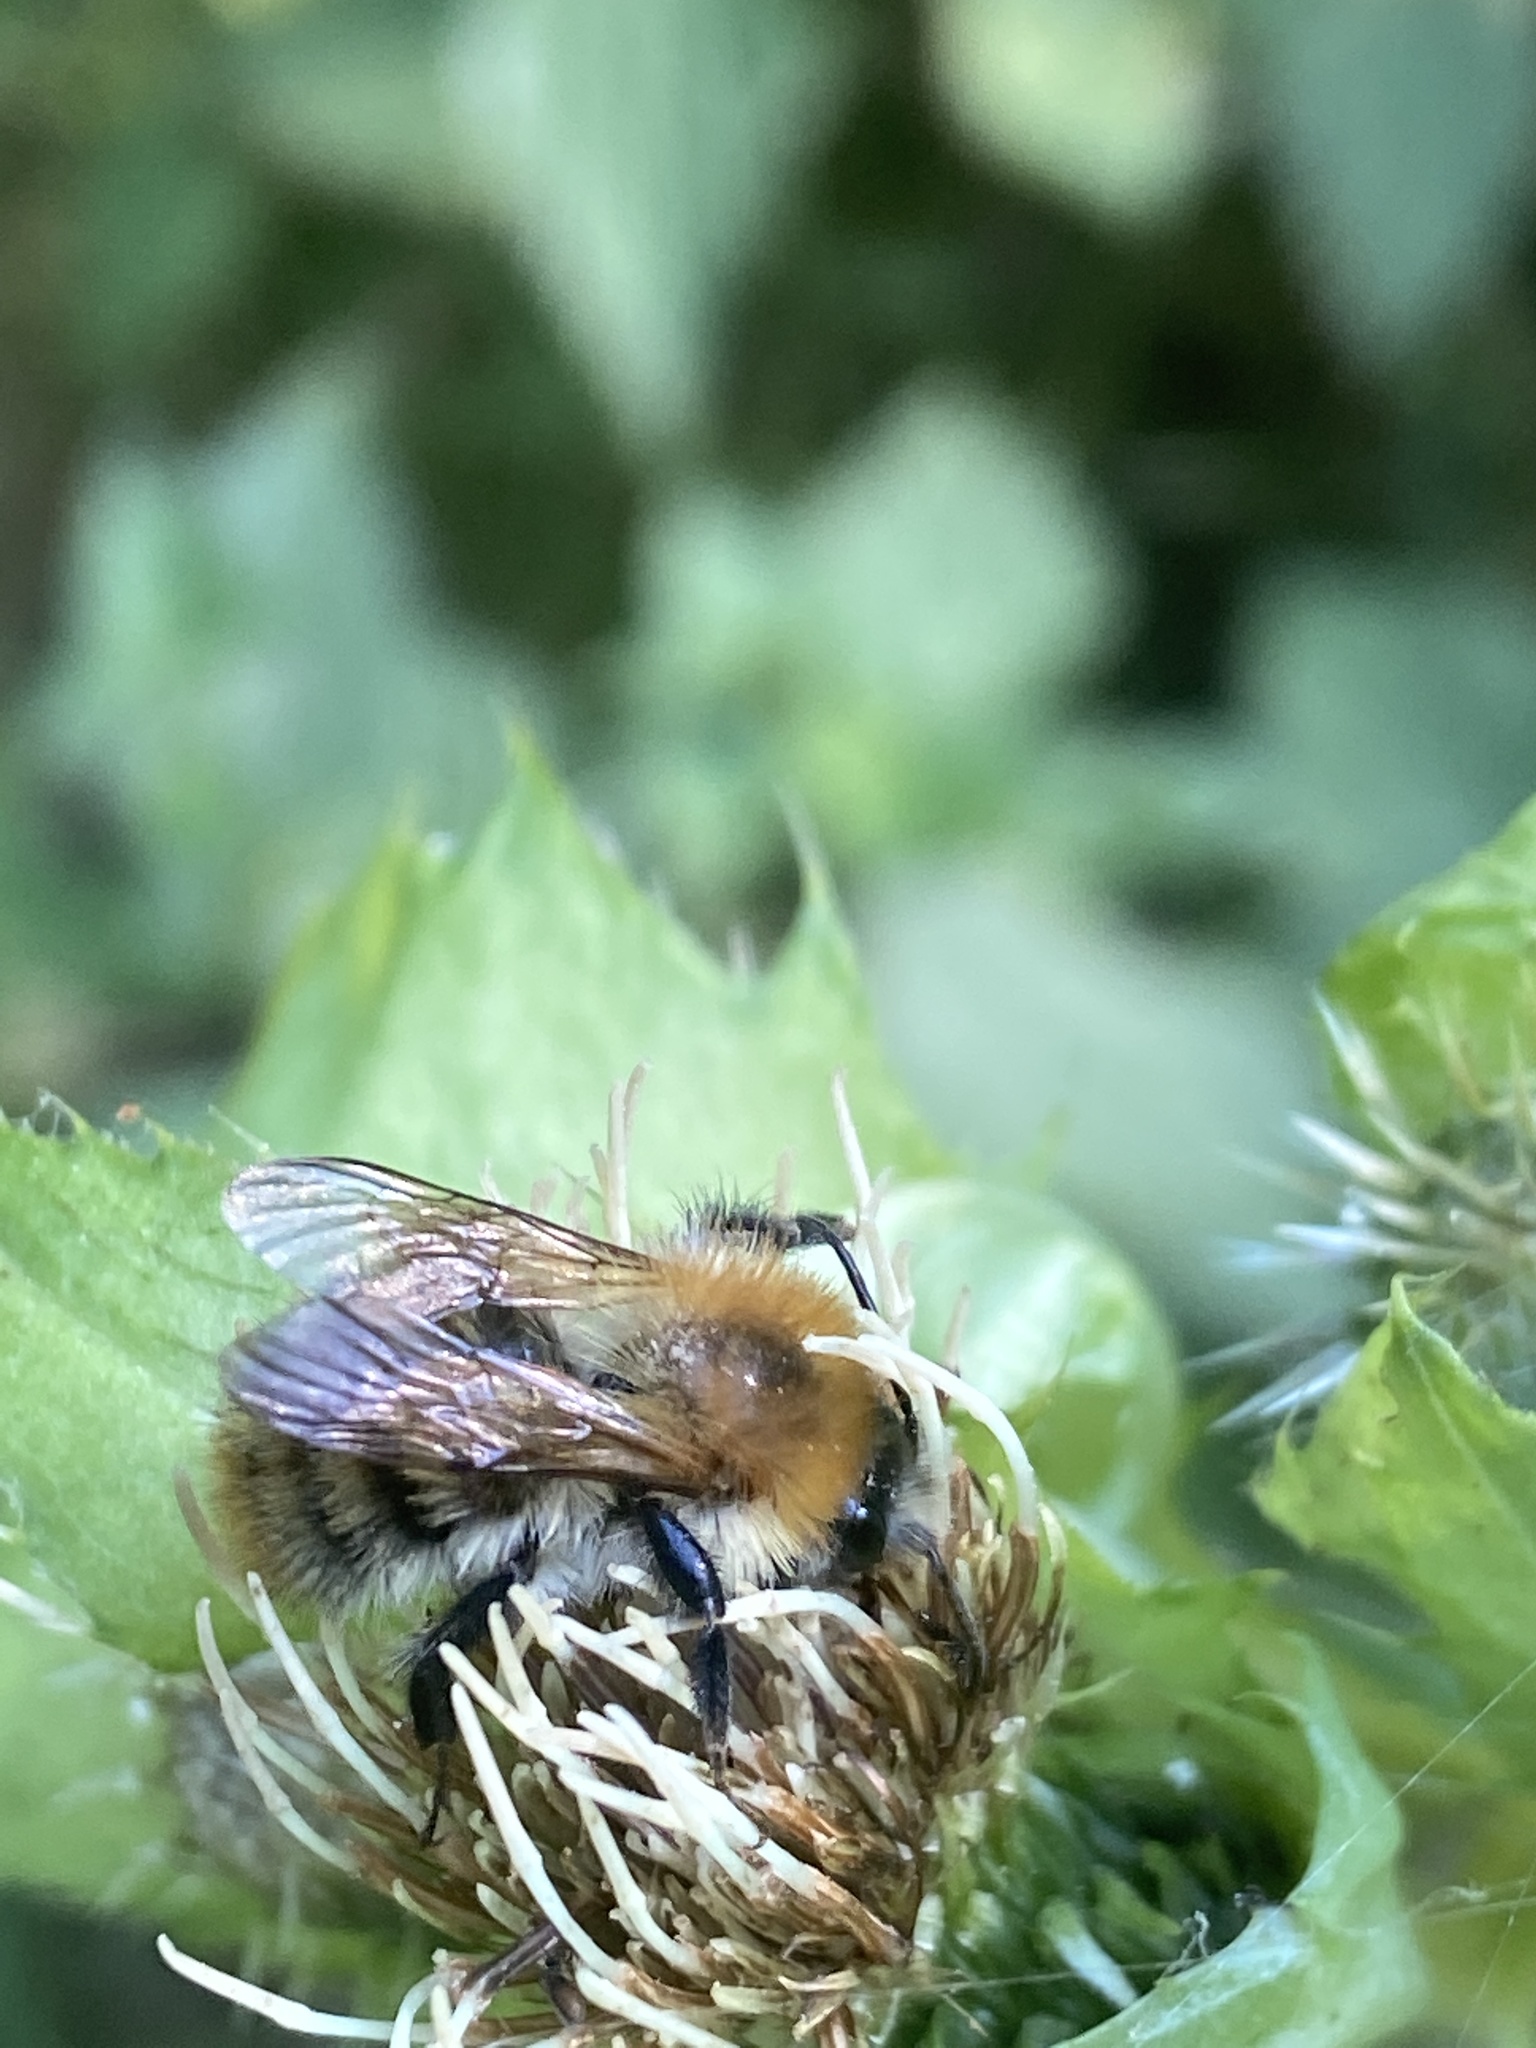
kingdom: Animalia
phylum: Arthropoda
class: Insecta
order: Hymenoptera
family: Apidae
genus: Bombus
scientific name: Bombus pascuorum
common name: Common carder bee
